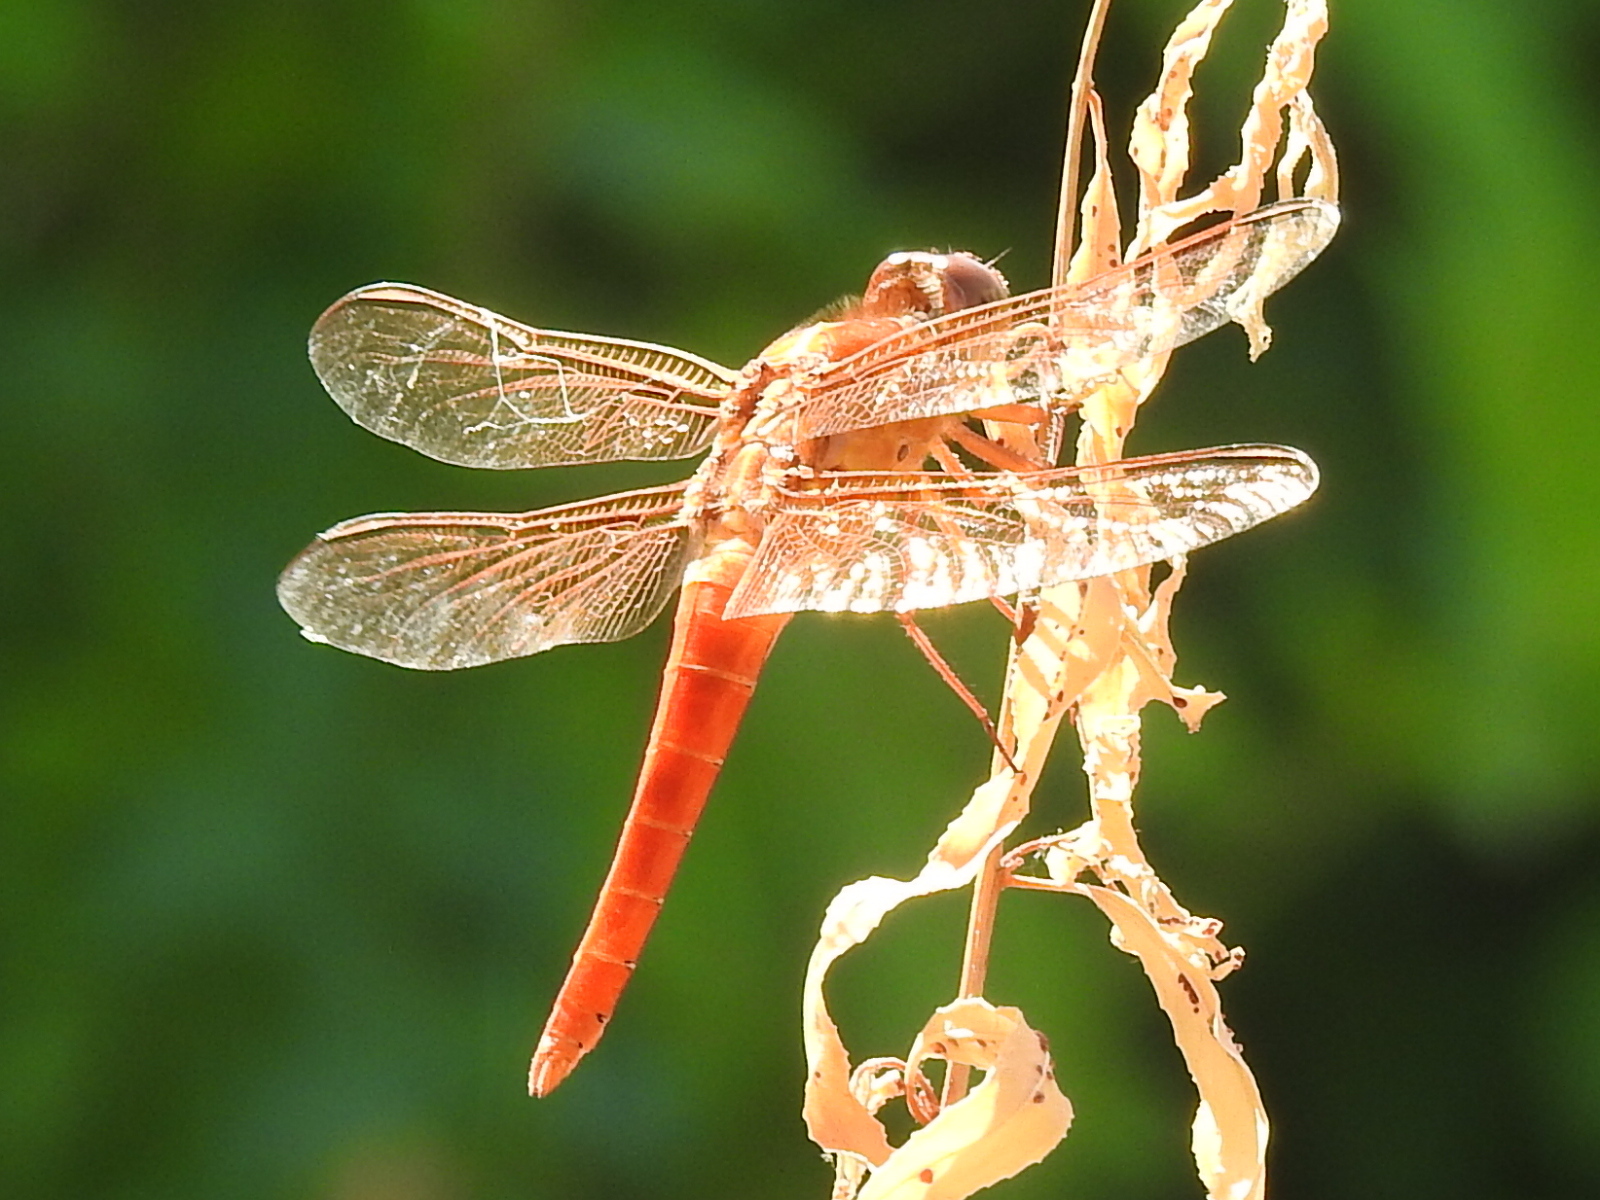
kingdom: Animalia
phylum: Arthropoda
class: Insecta
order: Odonata
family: Libellulidae
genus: Libellula
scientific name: Libellula croceipennis
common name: Neon skimmer
